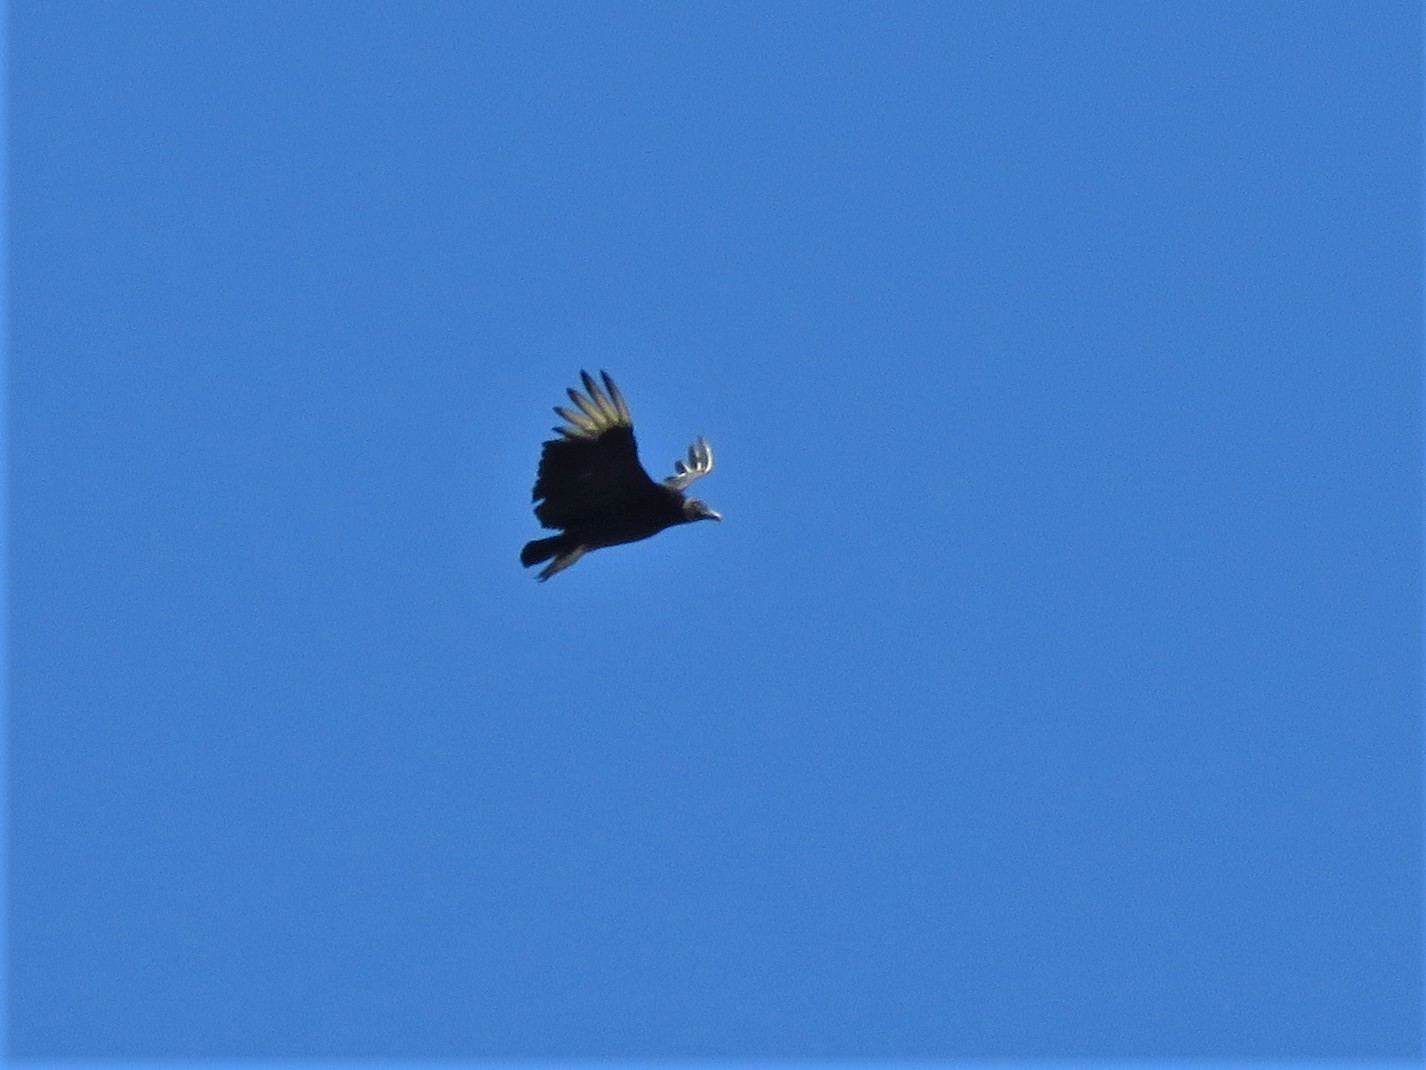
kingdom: Animalia
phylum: Chordata
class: Aves
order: Accipitriformes
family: Cathartidae
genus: Coragyps
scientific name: Coragyps atratus
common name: Black vulture
